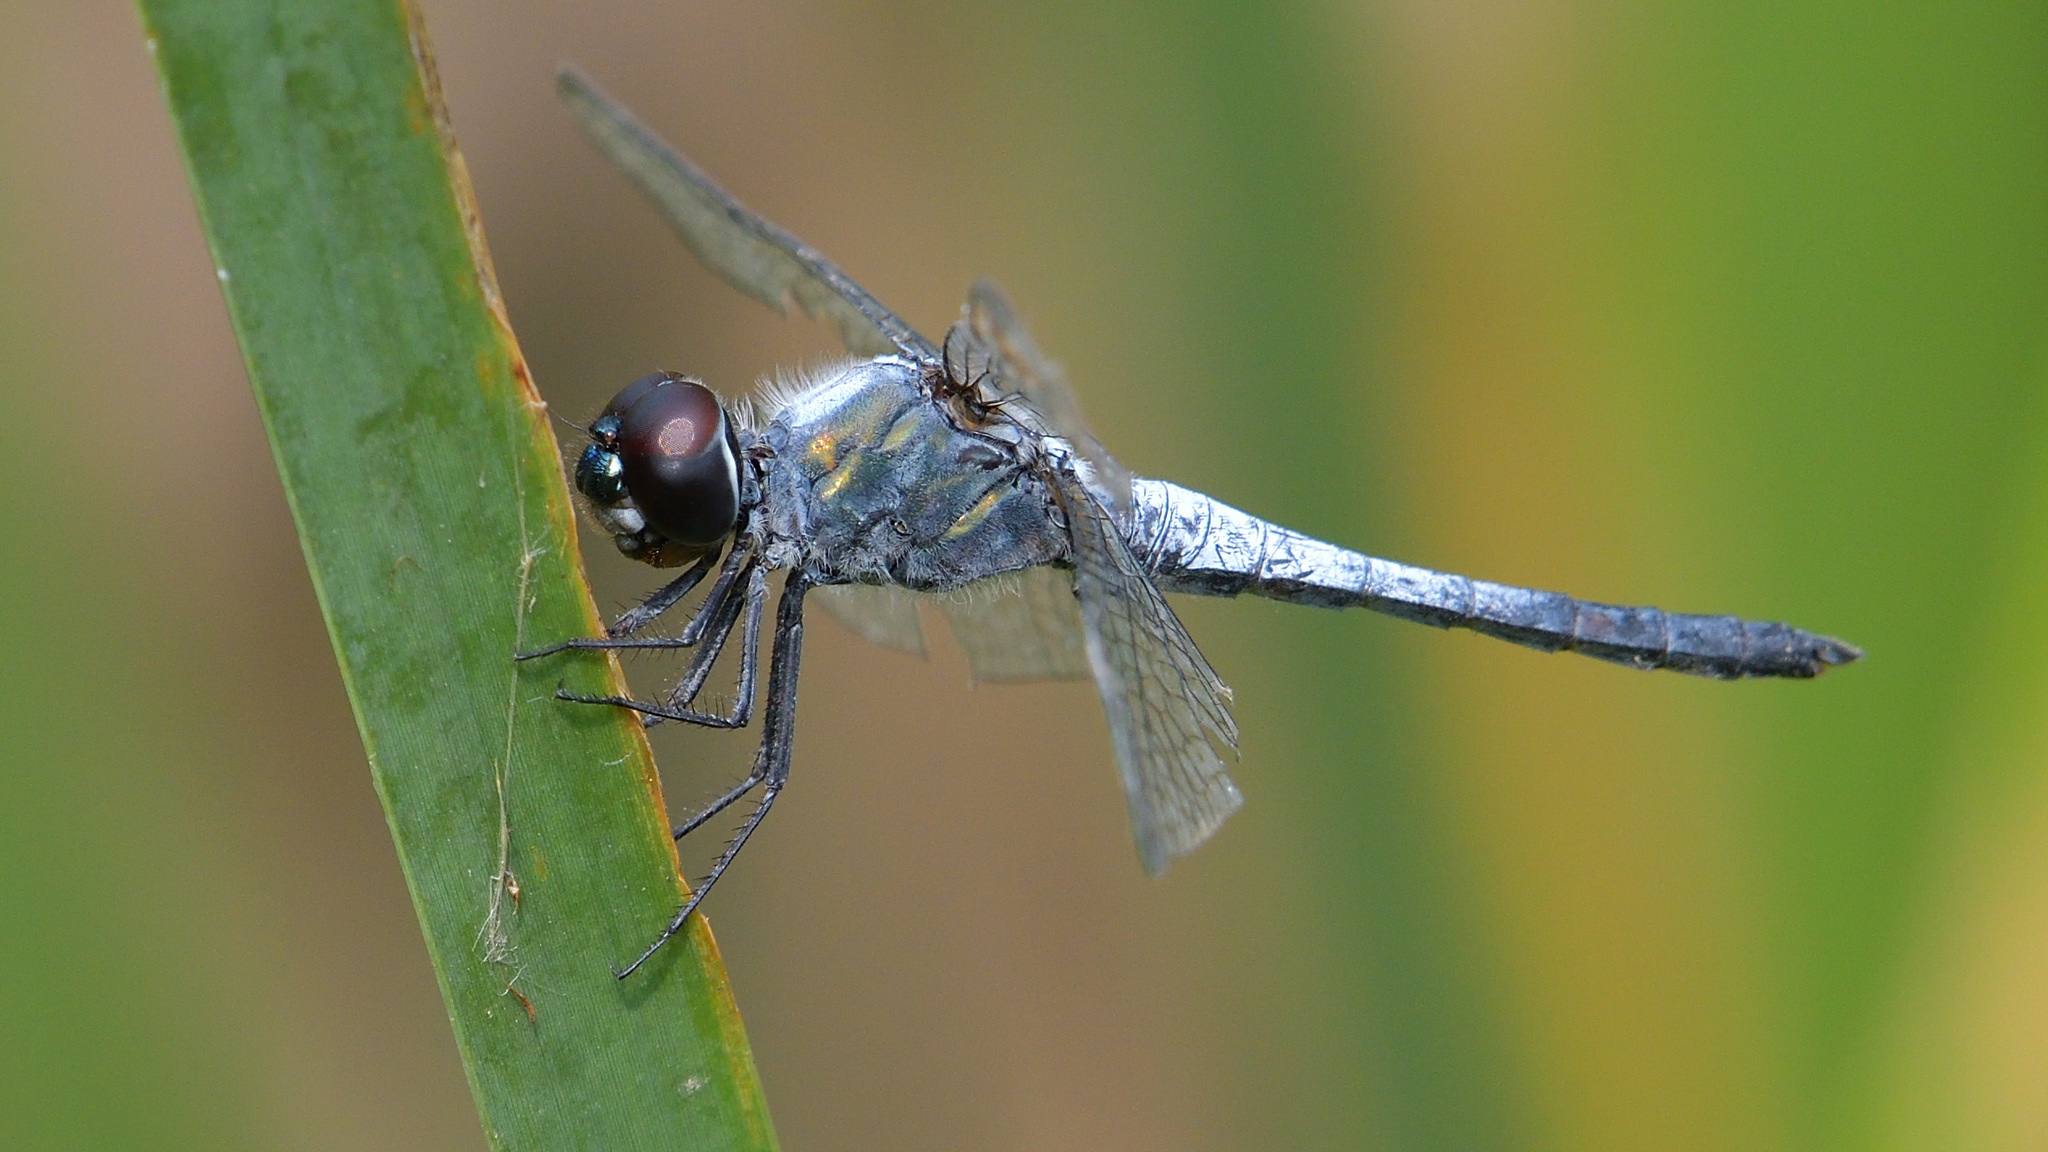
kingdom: Animalia
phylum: Arthropoda
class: Insecta
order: Odonata
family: Libellulidae
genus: Brachydiplax
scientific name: Brachydiplax sobrina
